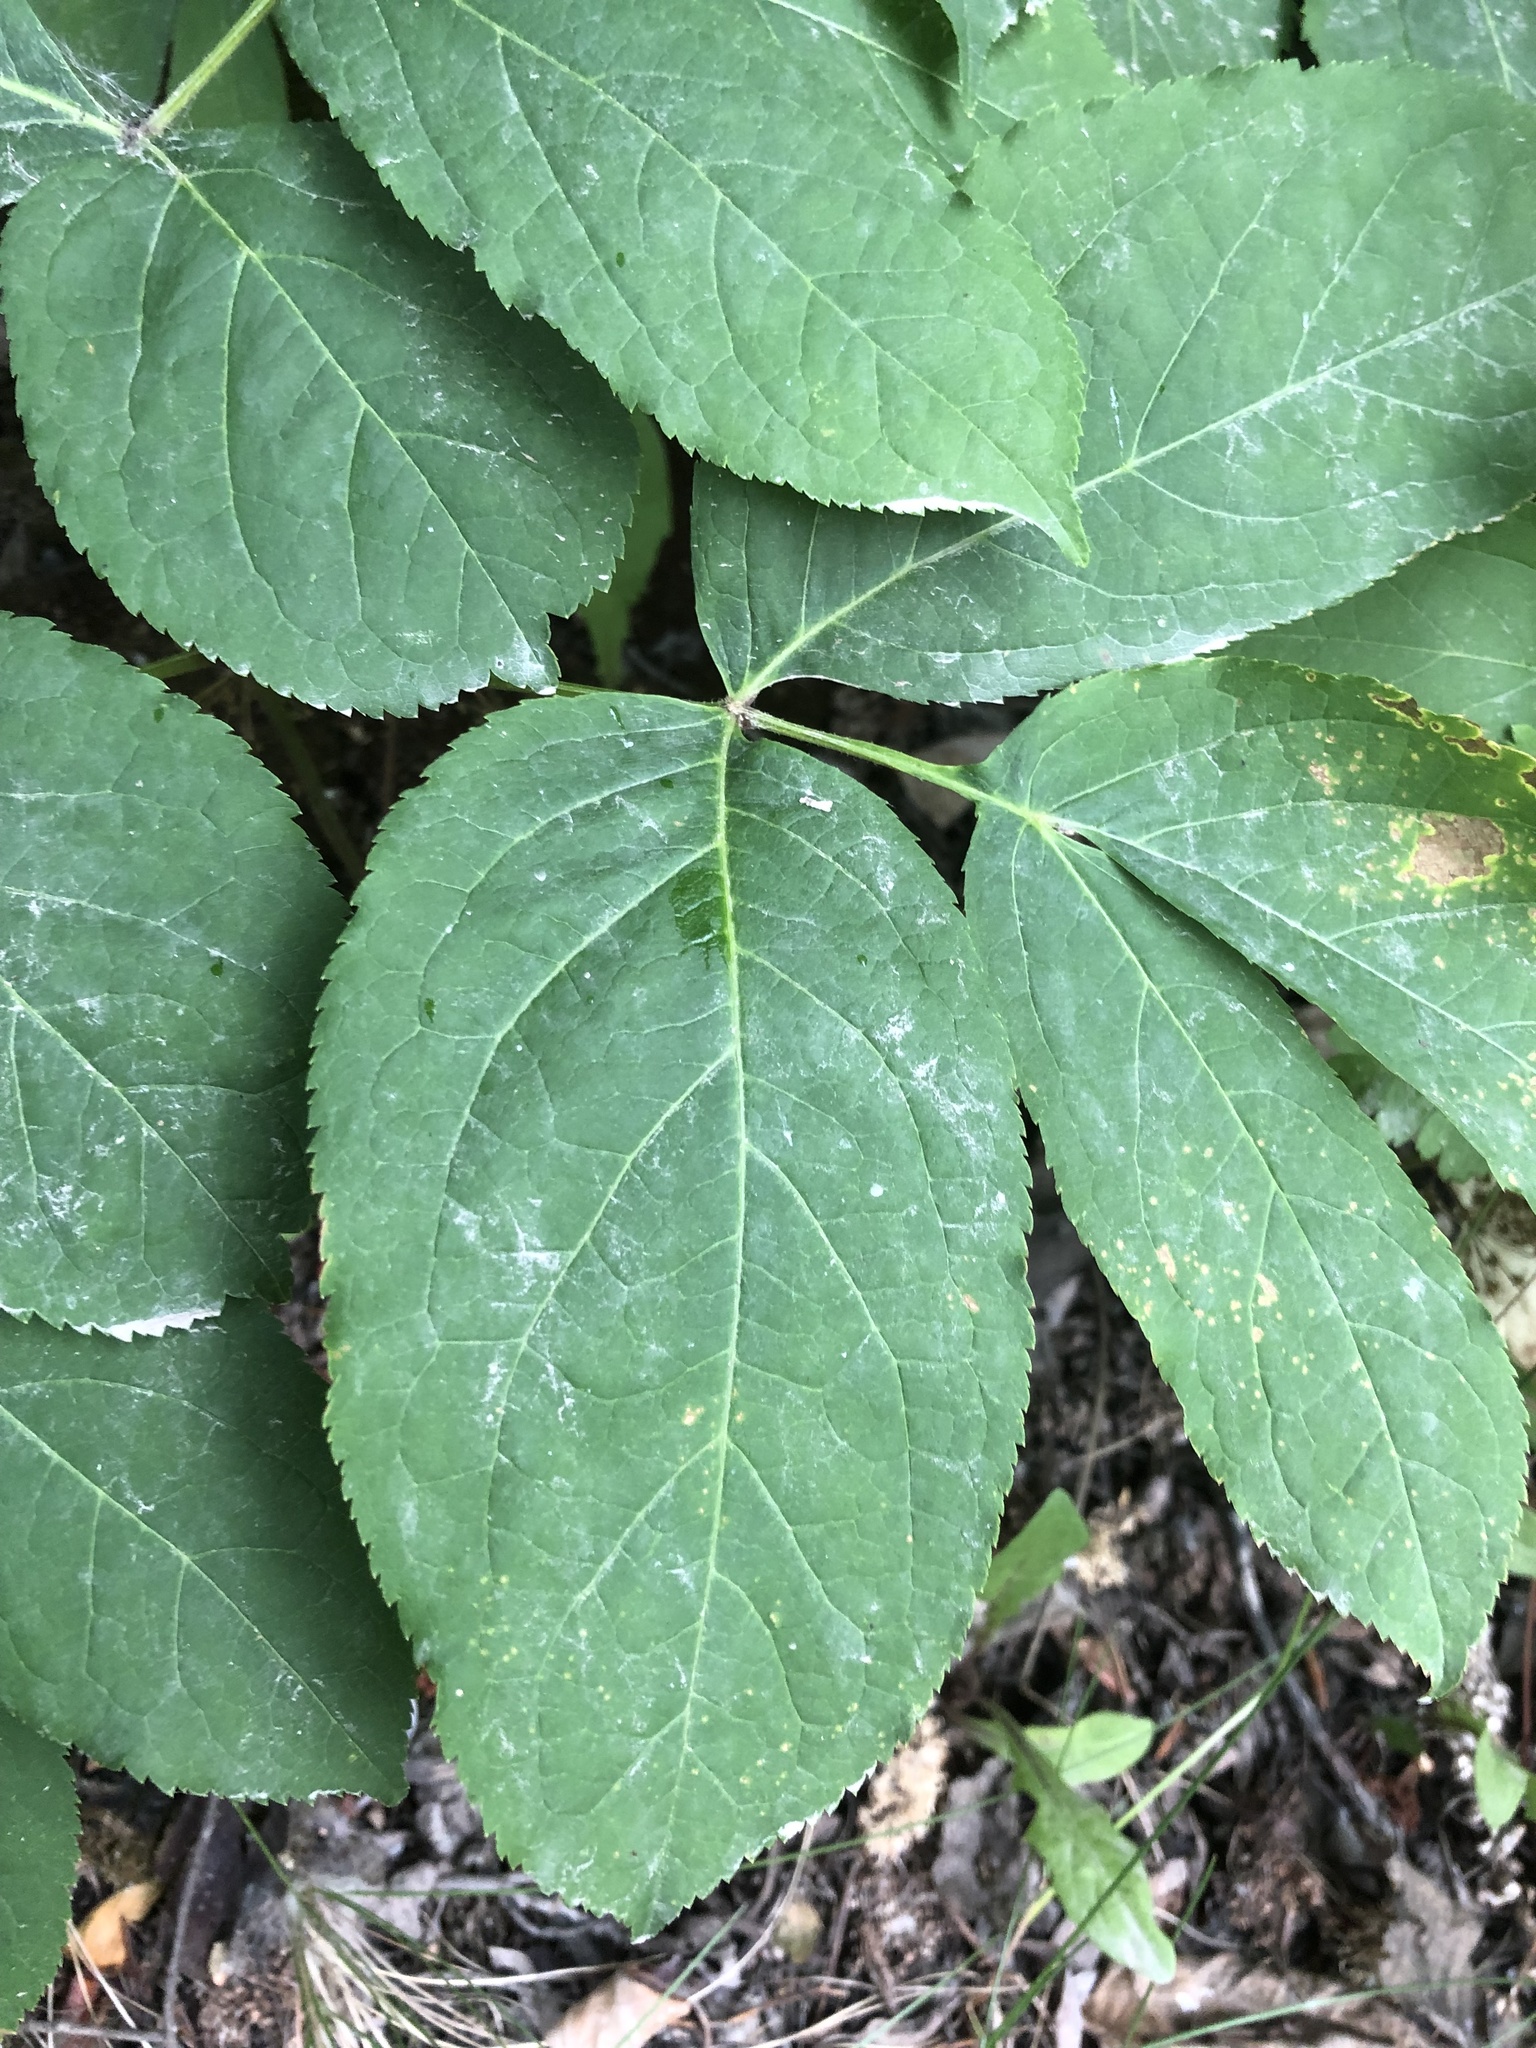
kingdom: Plantae
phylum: Tracheophyta
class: Magnoliopsida
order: Apiales
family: Araliaceae
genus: Aralia
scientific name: Aralia nudicaulis
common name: Wild sarsaparilla
